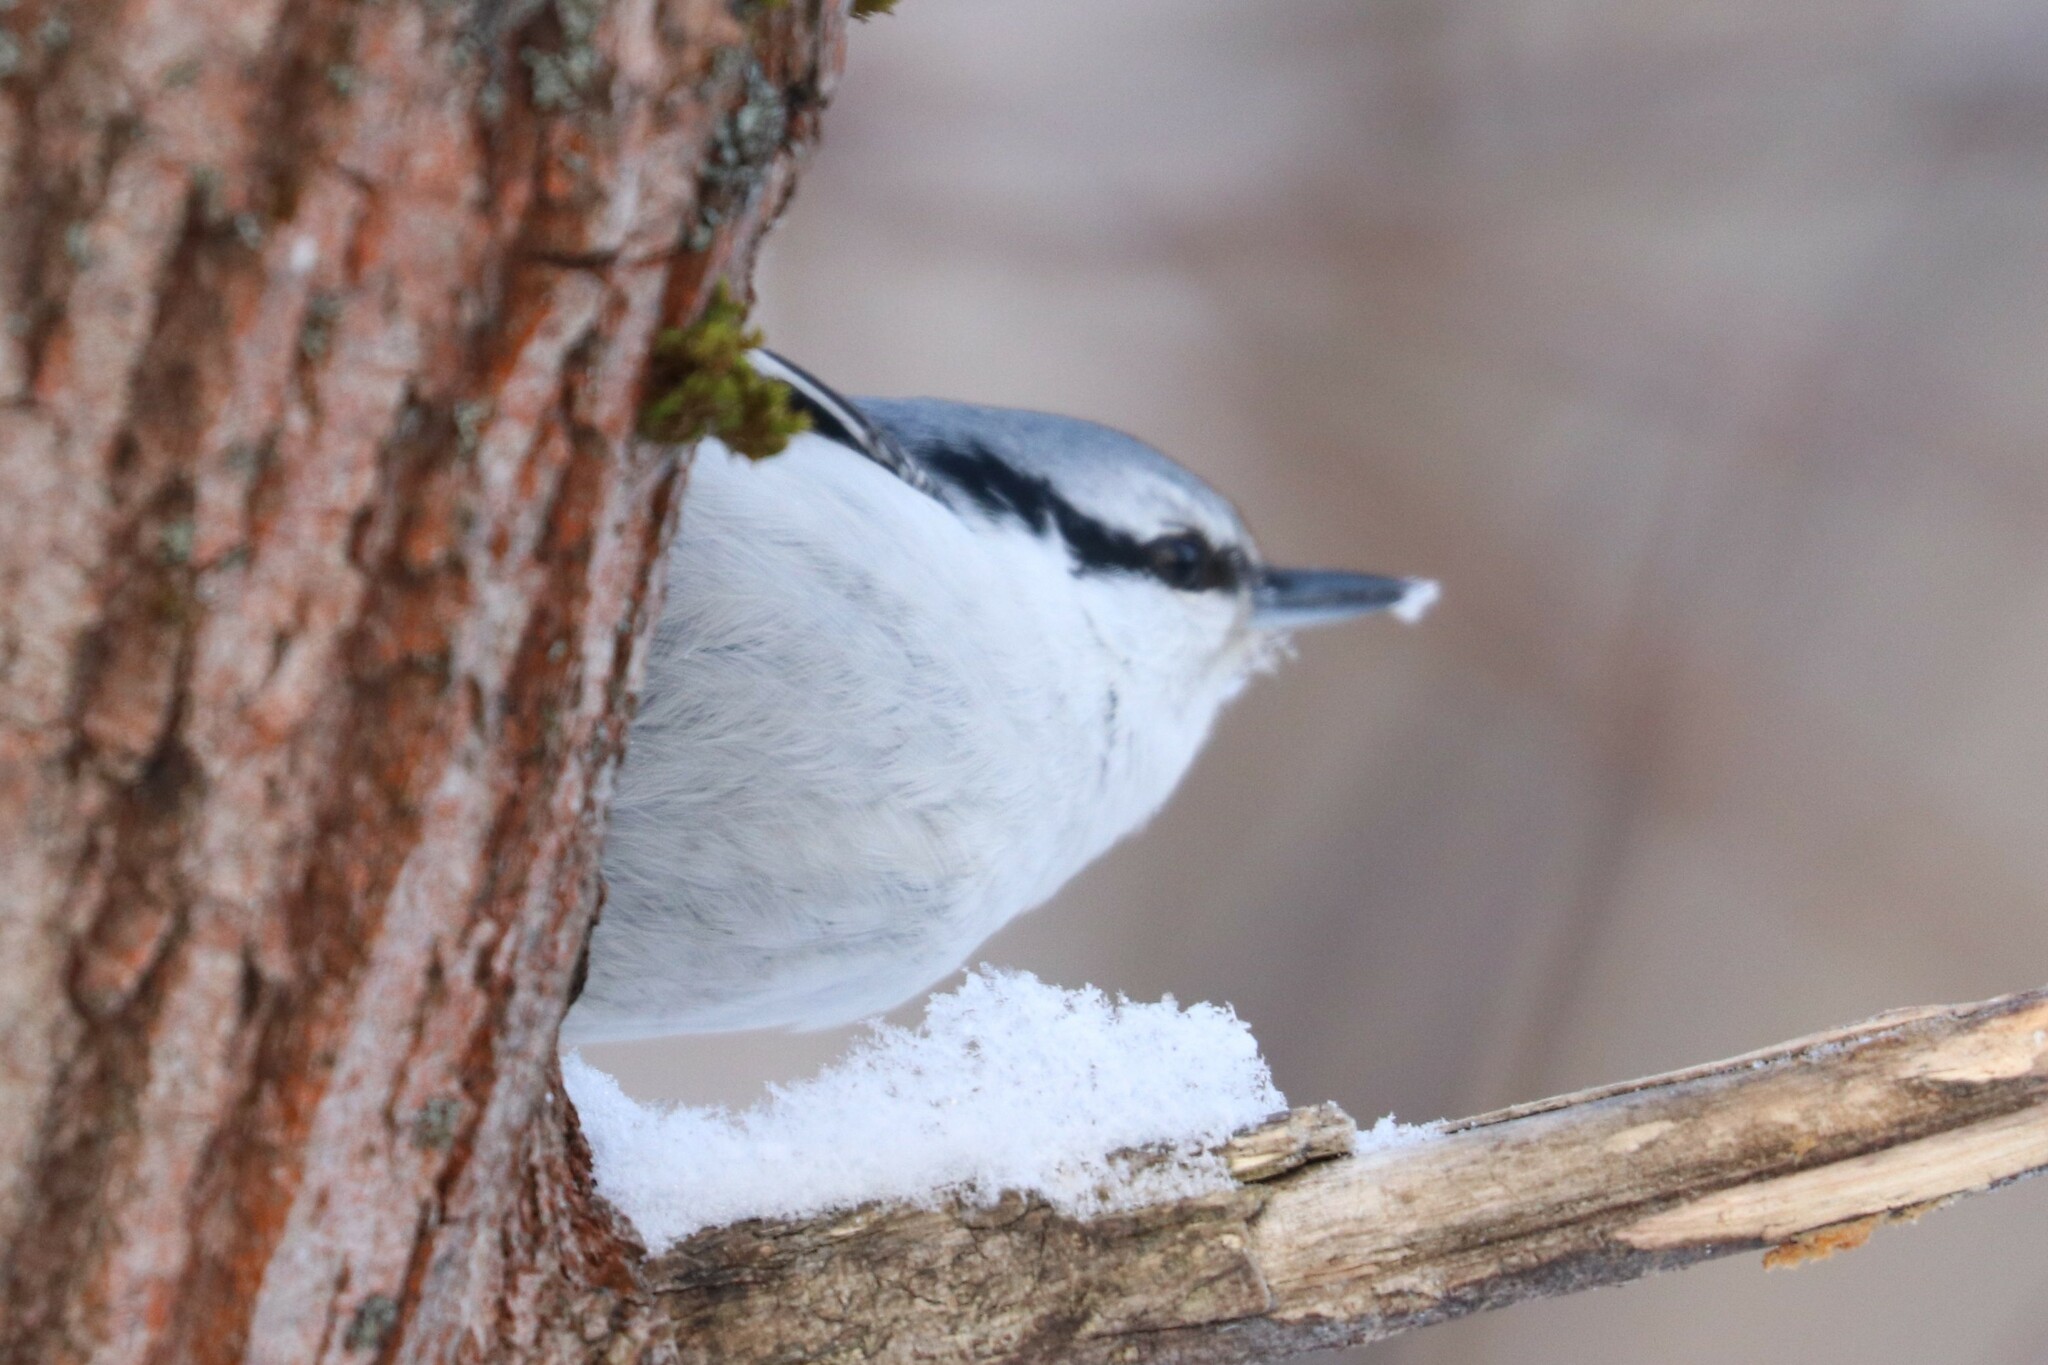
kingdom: Animalia
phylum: Chordata
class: Aves
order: Passeriformes
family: Sittidae
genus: Sitta
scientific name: Sitta europaea
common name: Eurasian nuthatch
